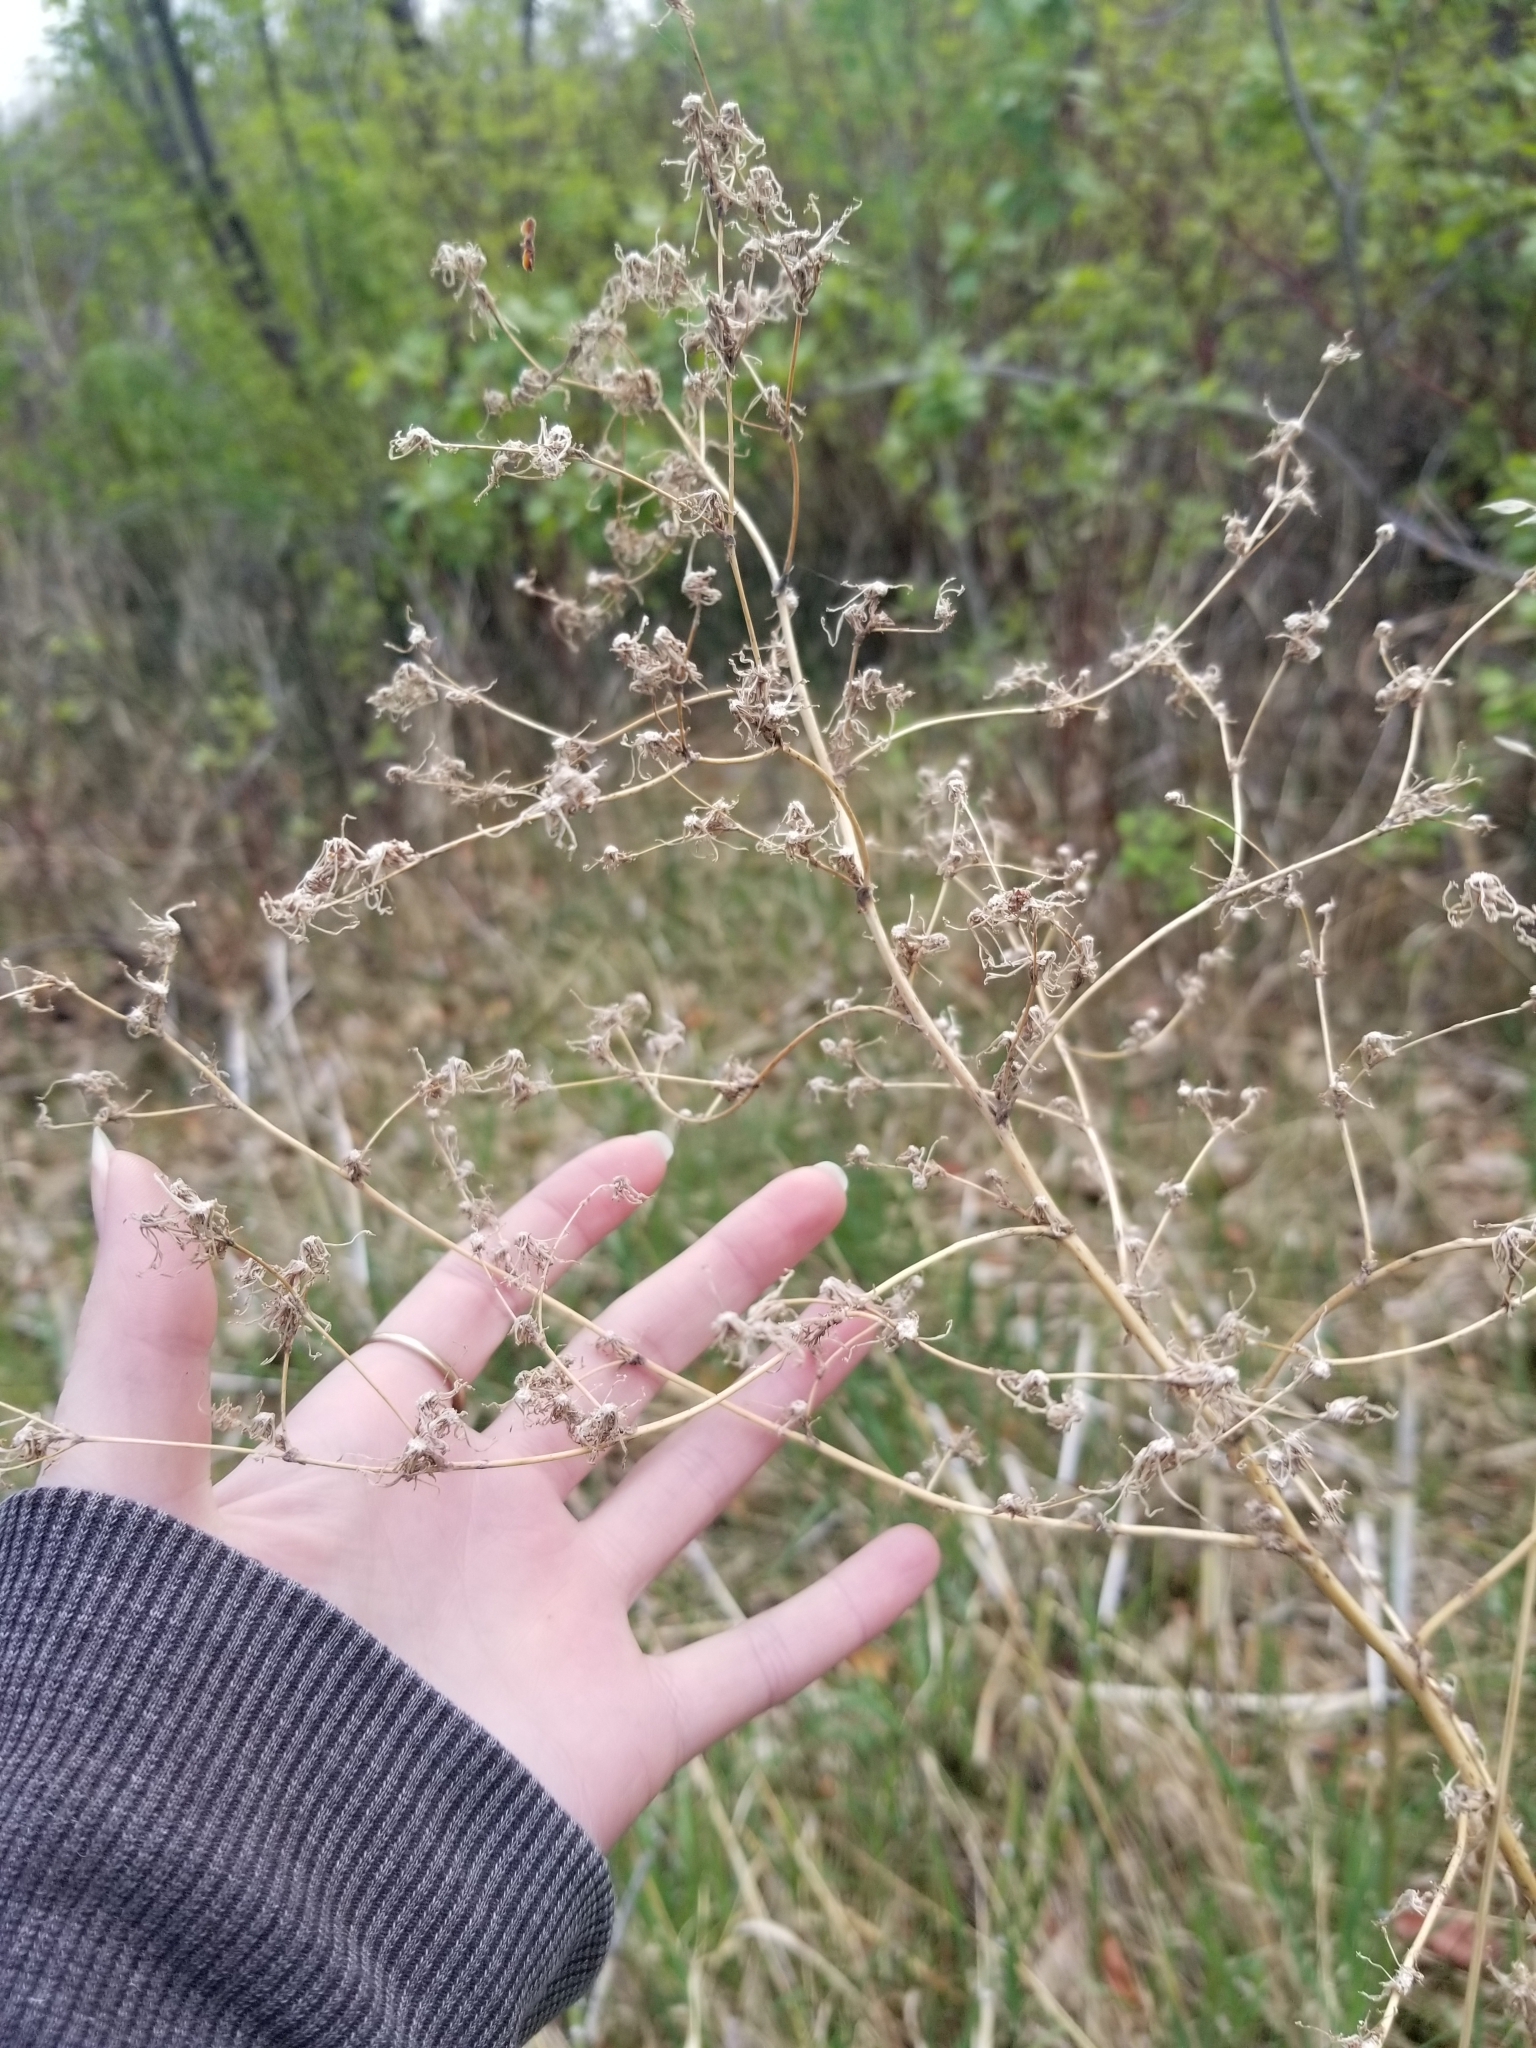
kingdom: Plantae
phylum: Tracheophyta
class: Magnoliopsida
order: Asterales
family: Asteraceae
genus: Lactuca
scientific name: Lactuca serriola
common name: Prickly lettuce
